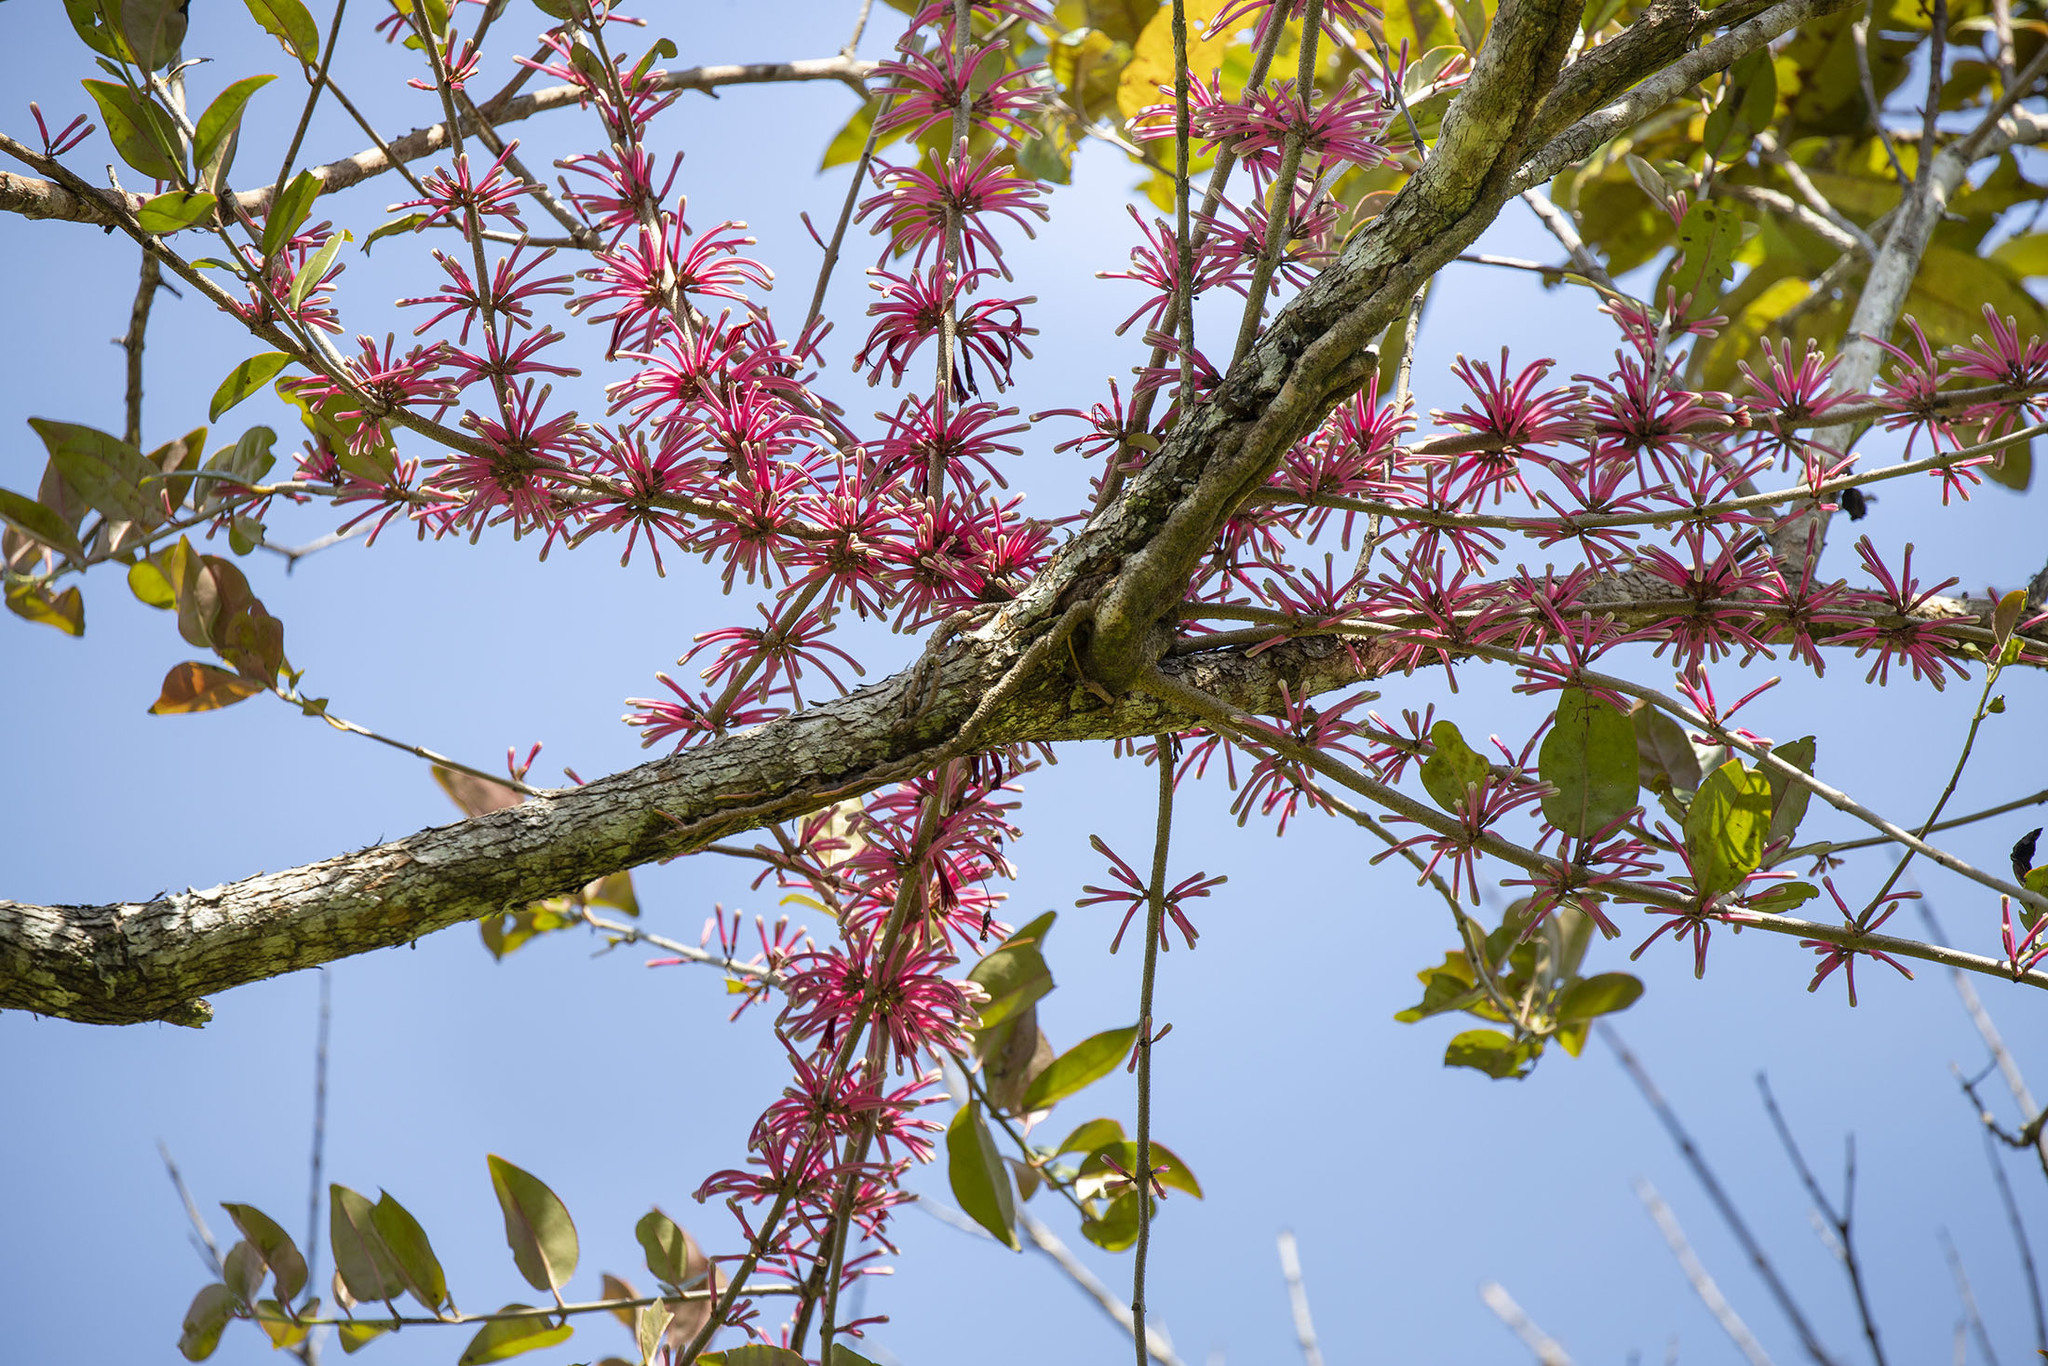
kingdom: Plantae
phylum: Tracheophyta
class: Magnoliopsida
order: Santalales
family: Loranthaceae
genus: Bakerella
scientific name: Bakerella clavata
